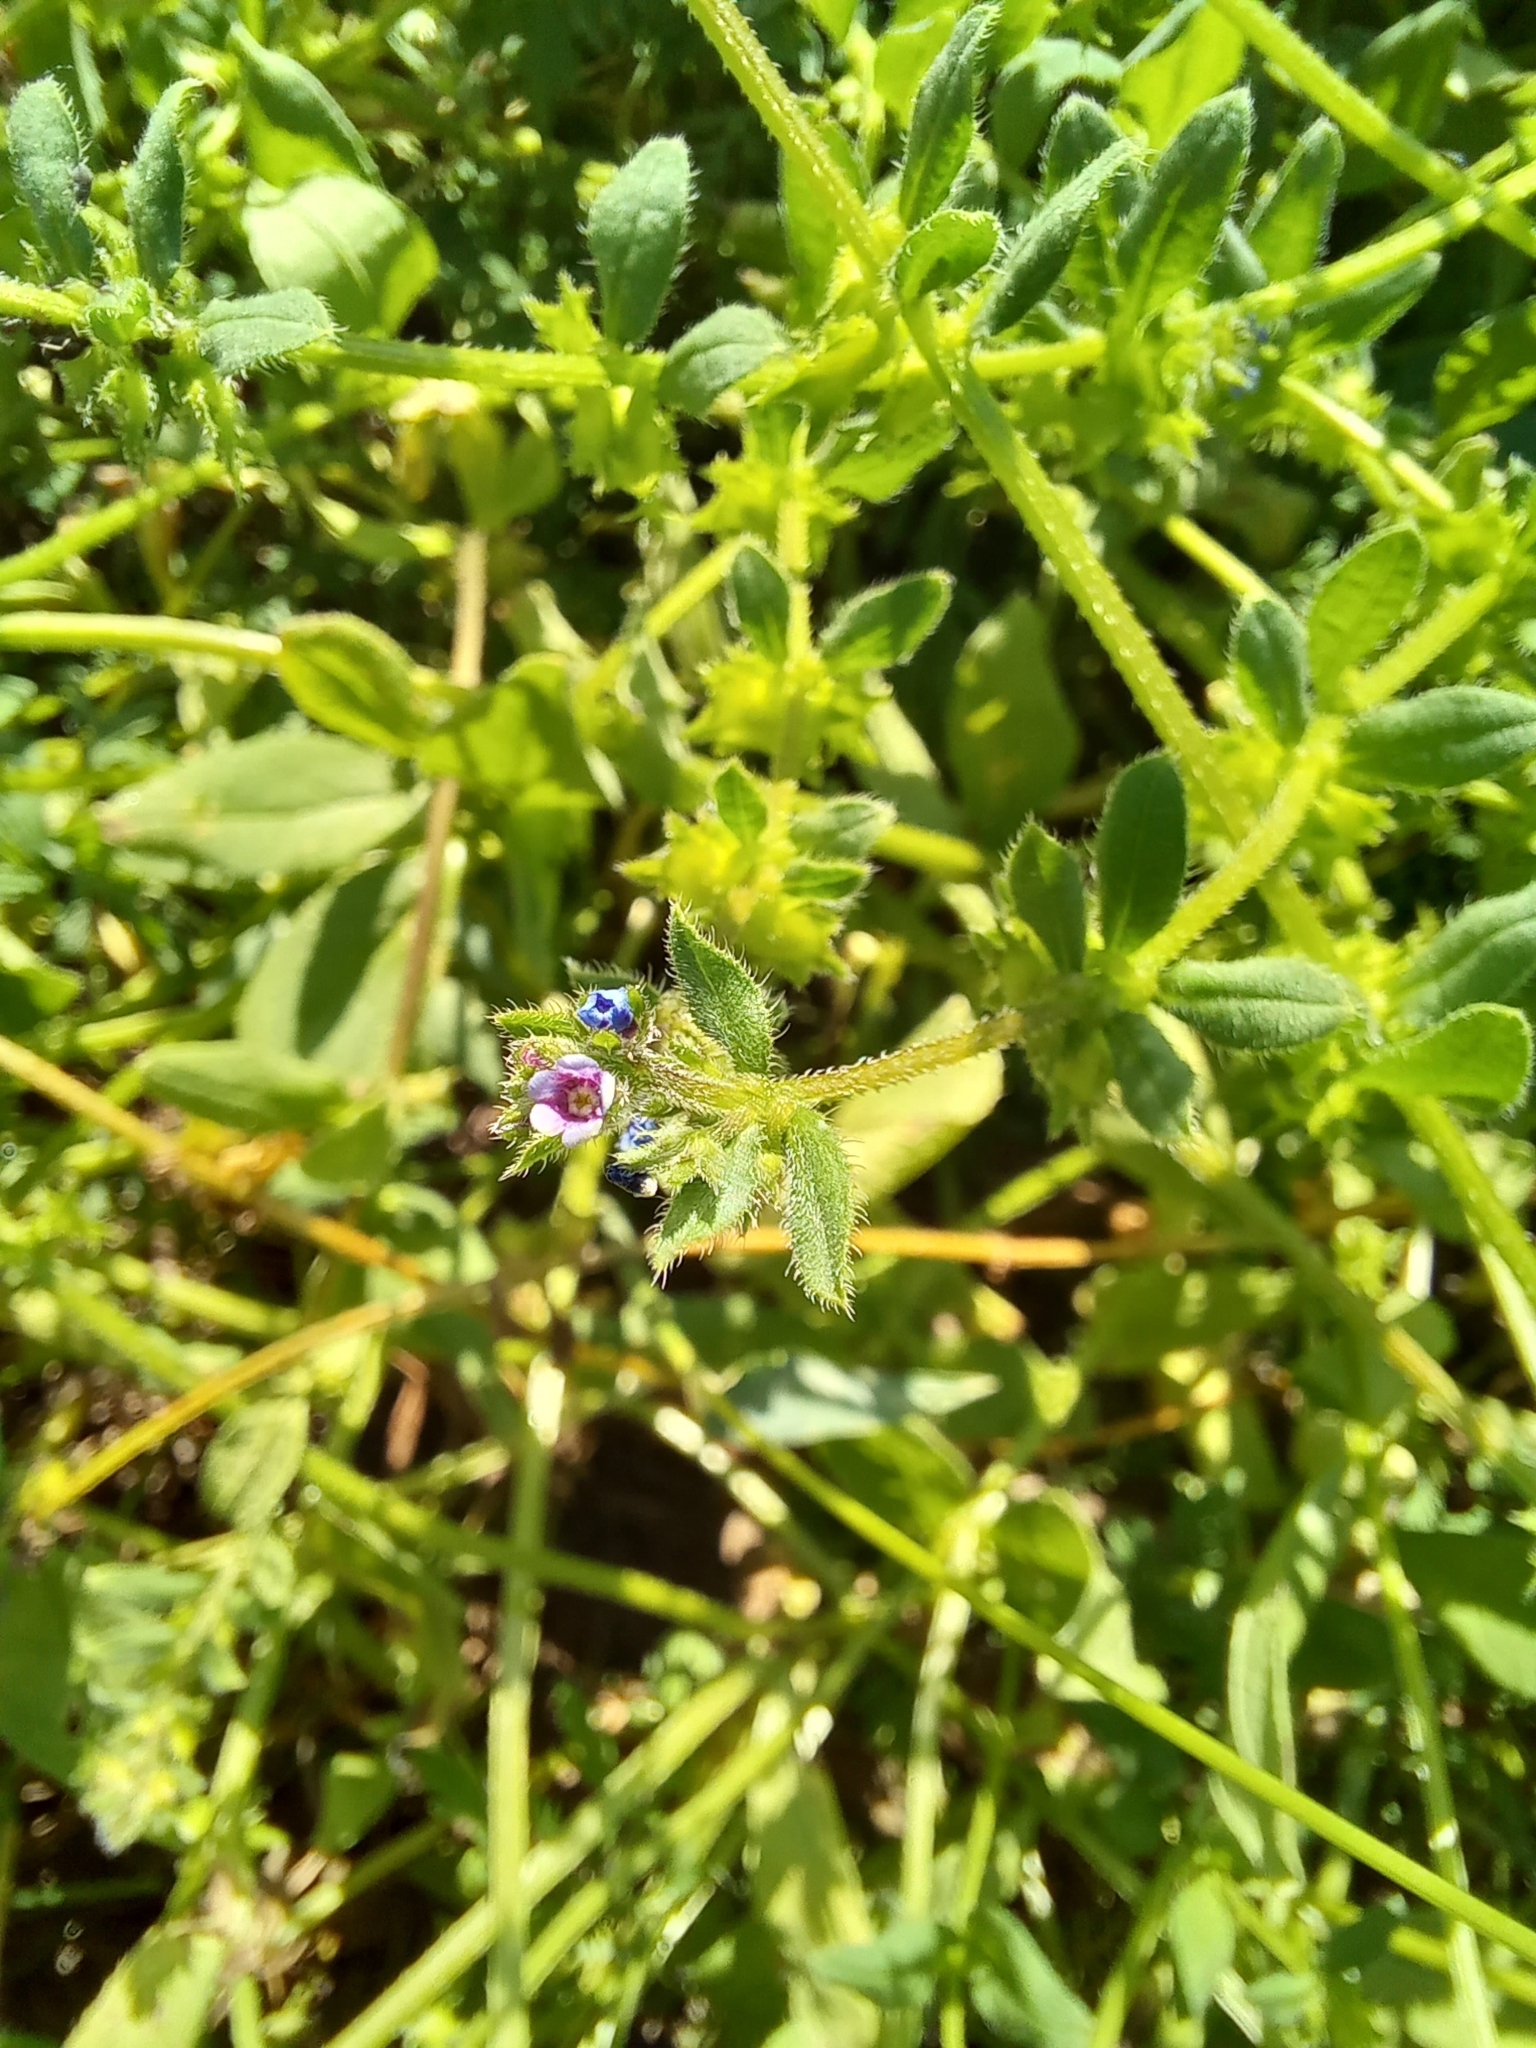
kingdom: Plantae
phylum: Tracheophyta
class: Magnoliopsida
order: Boraginales
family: Boraginaceae
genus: Asperugo
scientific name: Asperugo procumbens
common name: Madwort
